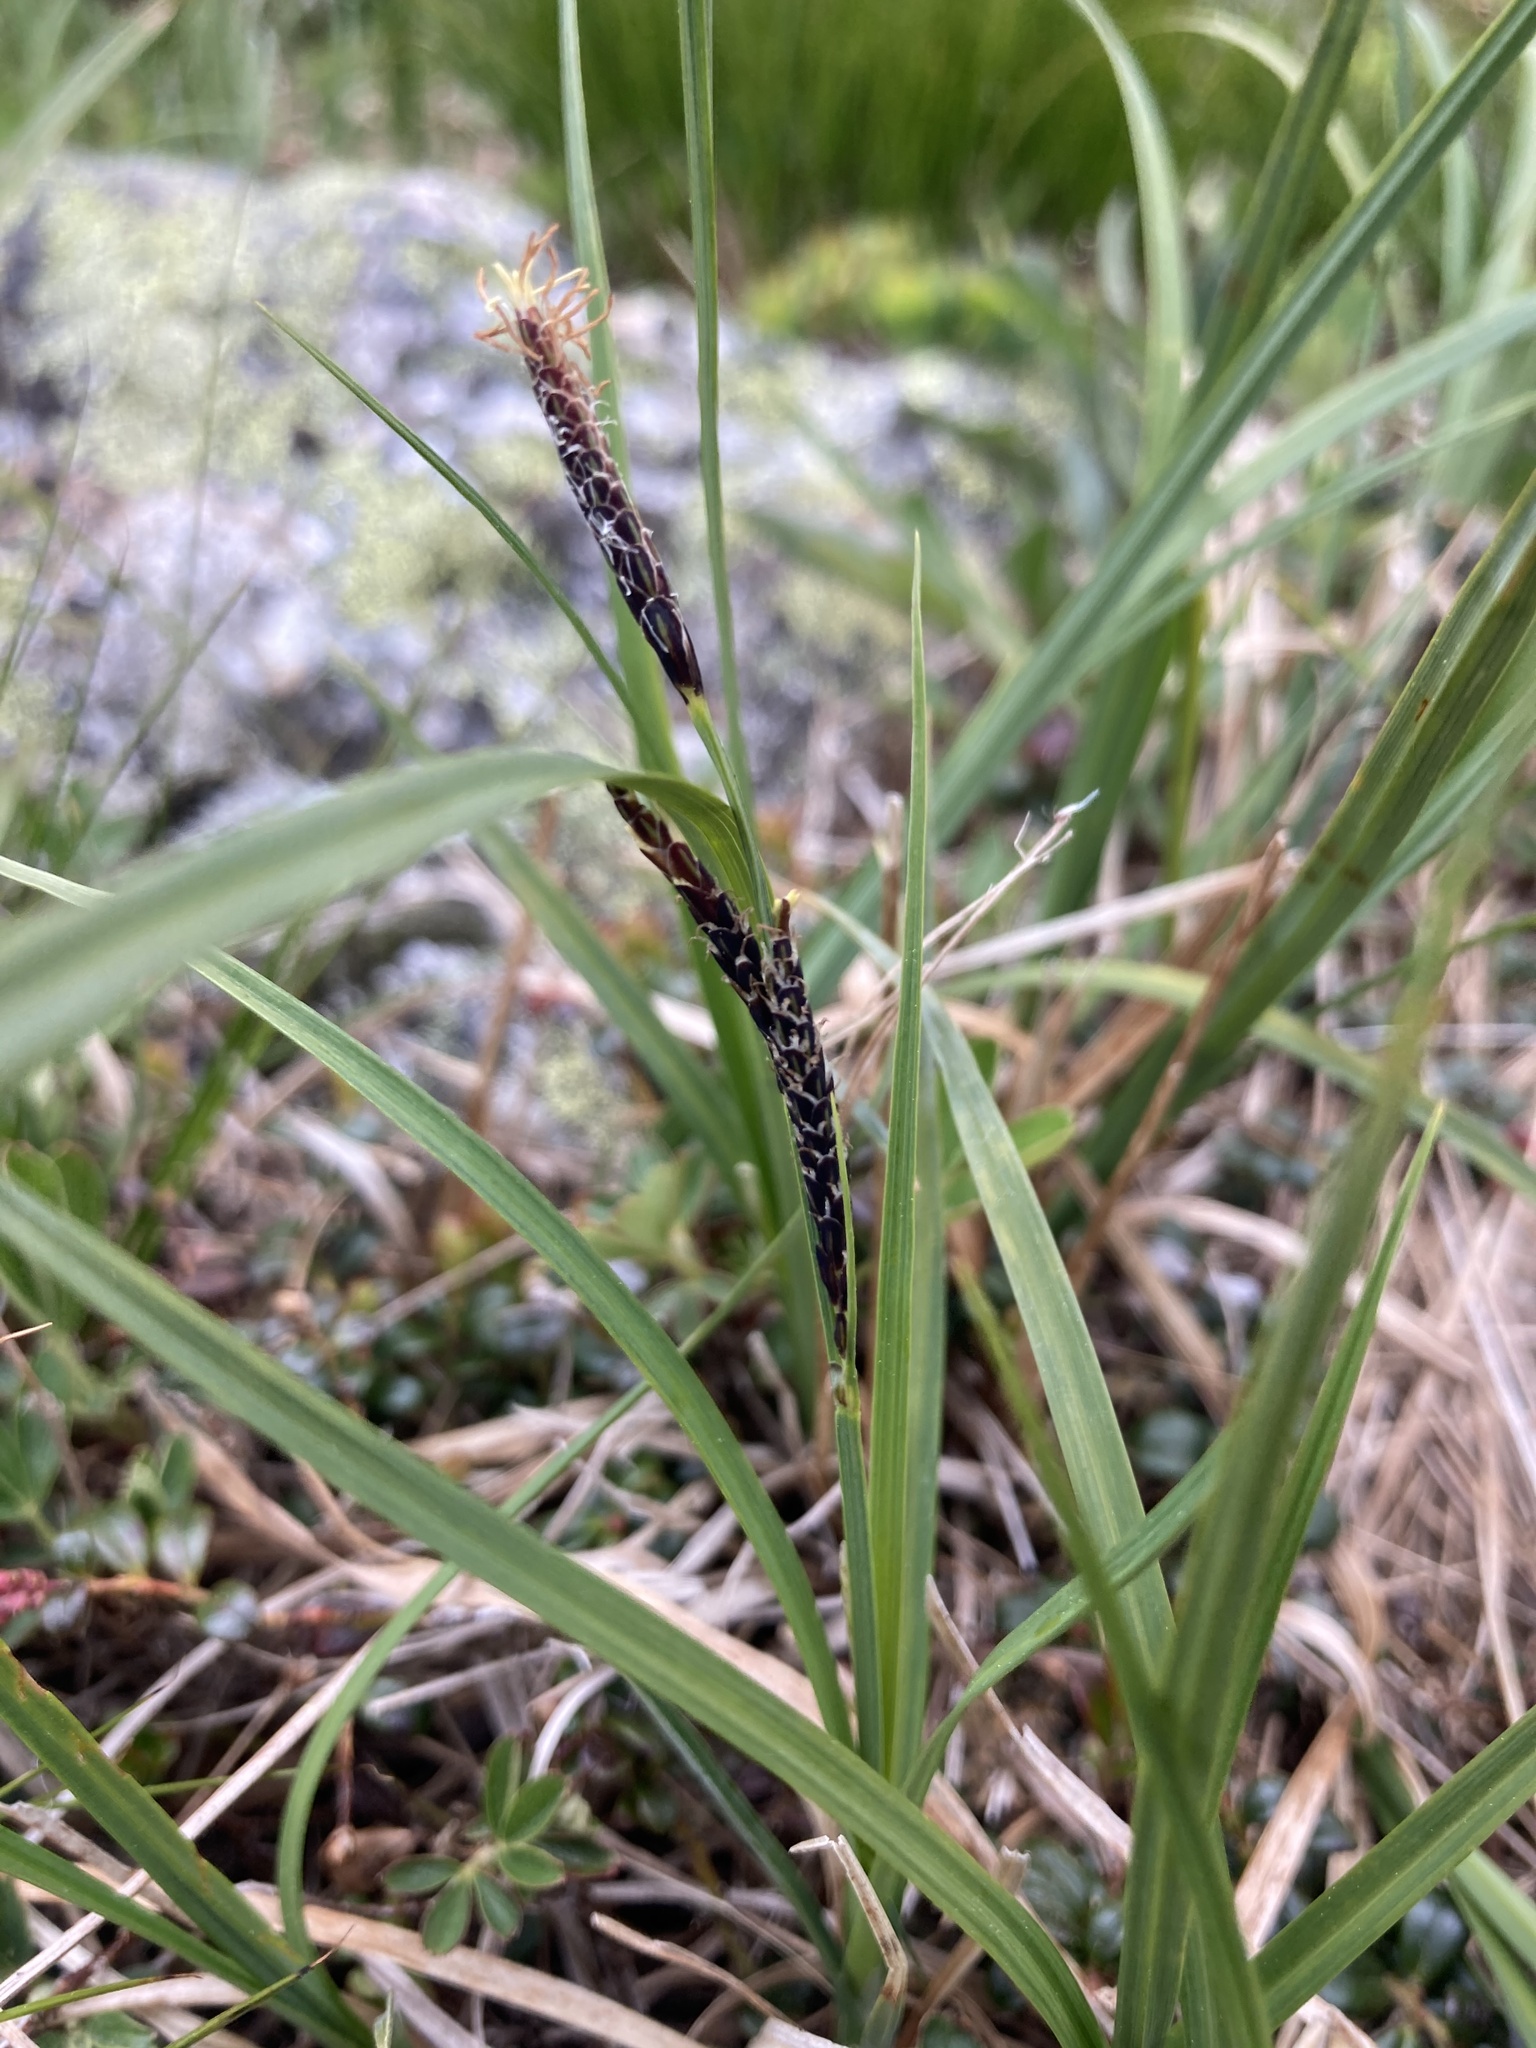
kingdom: Plantae
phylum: Tracheophyta
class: Liliopsida
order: Poales
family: Cyperaceae
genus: Carex
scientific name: Carex bigelowii
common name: Stiff sedge
